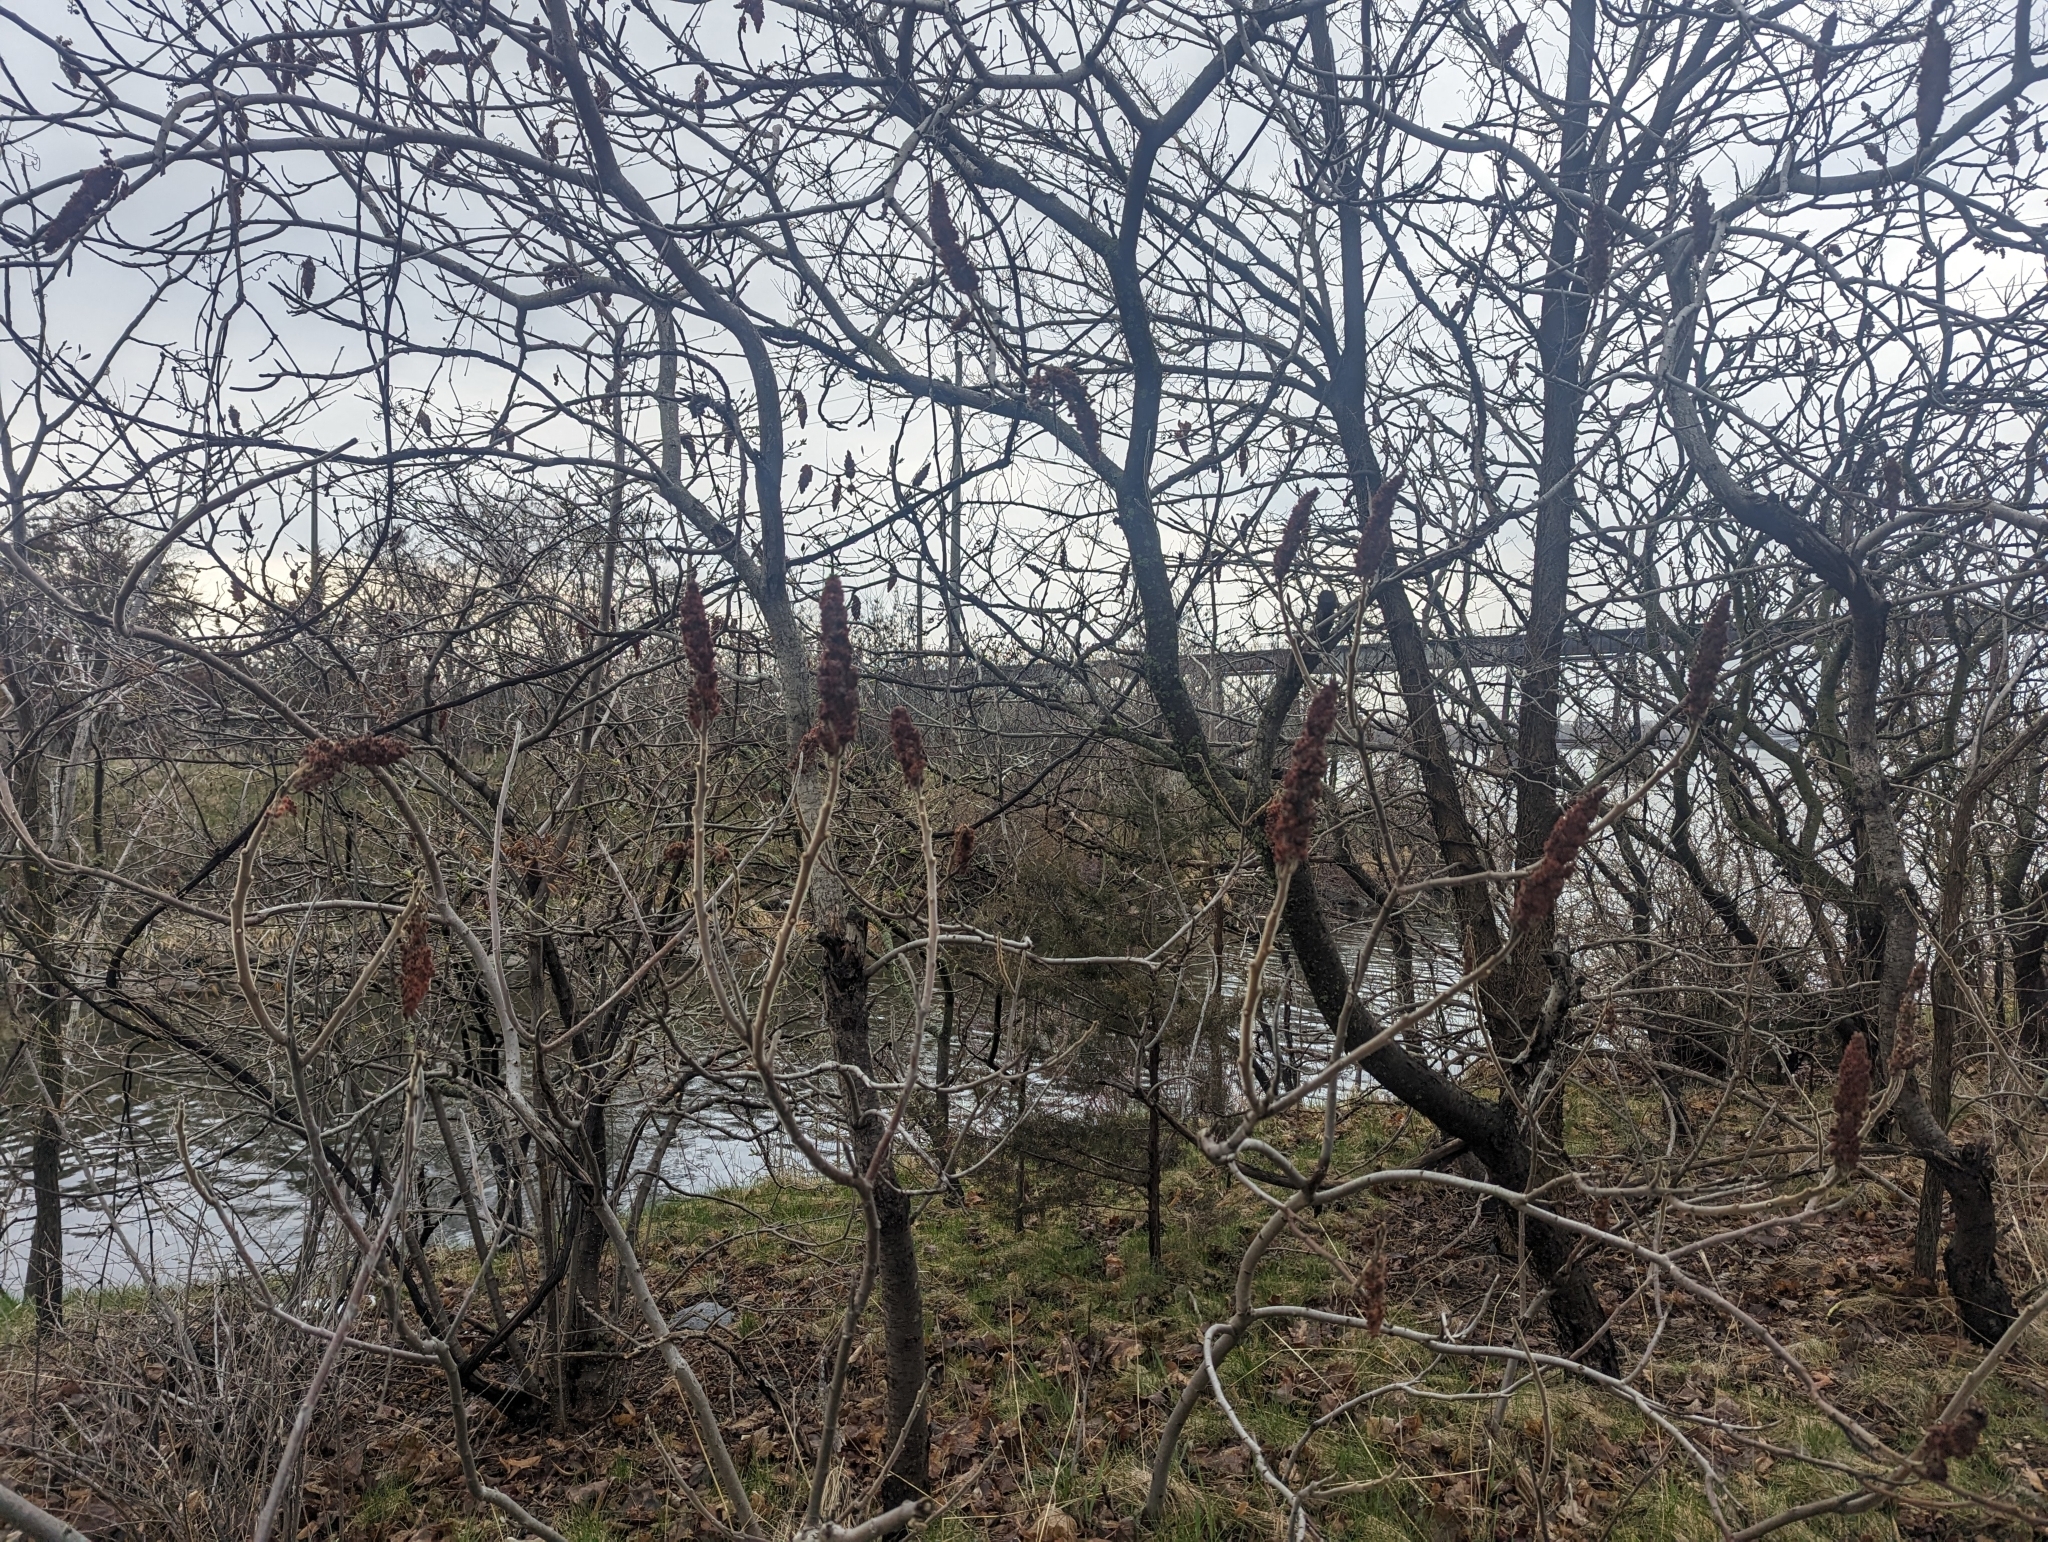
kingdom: Plantae
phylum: Tracheophyta
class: Magnoliopsida
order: Sapindales
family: Anacardiaceae
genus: Rhus
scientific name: Rhus typhina
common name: Staghorn sumac
